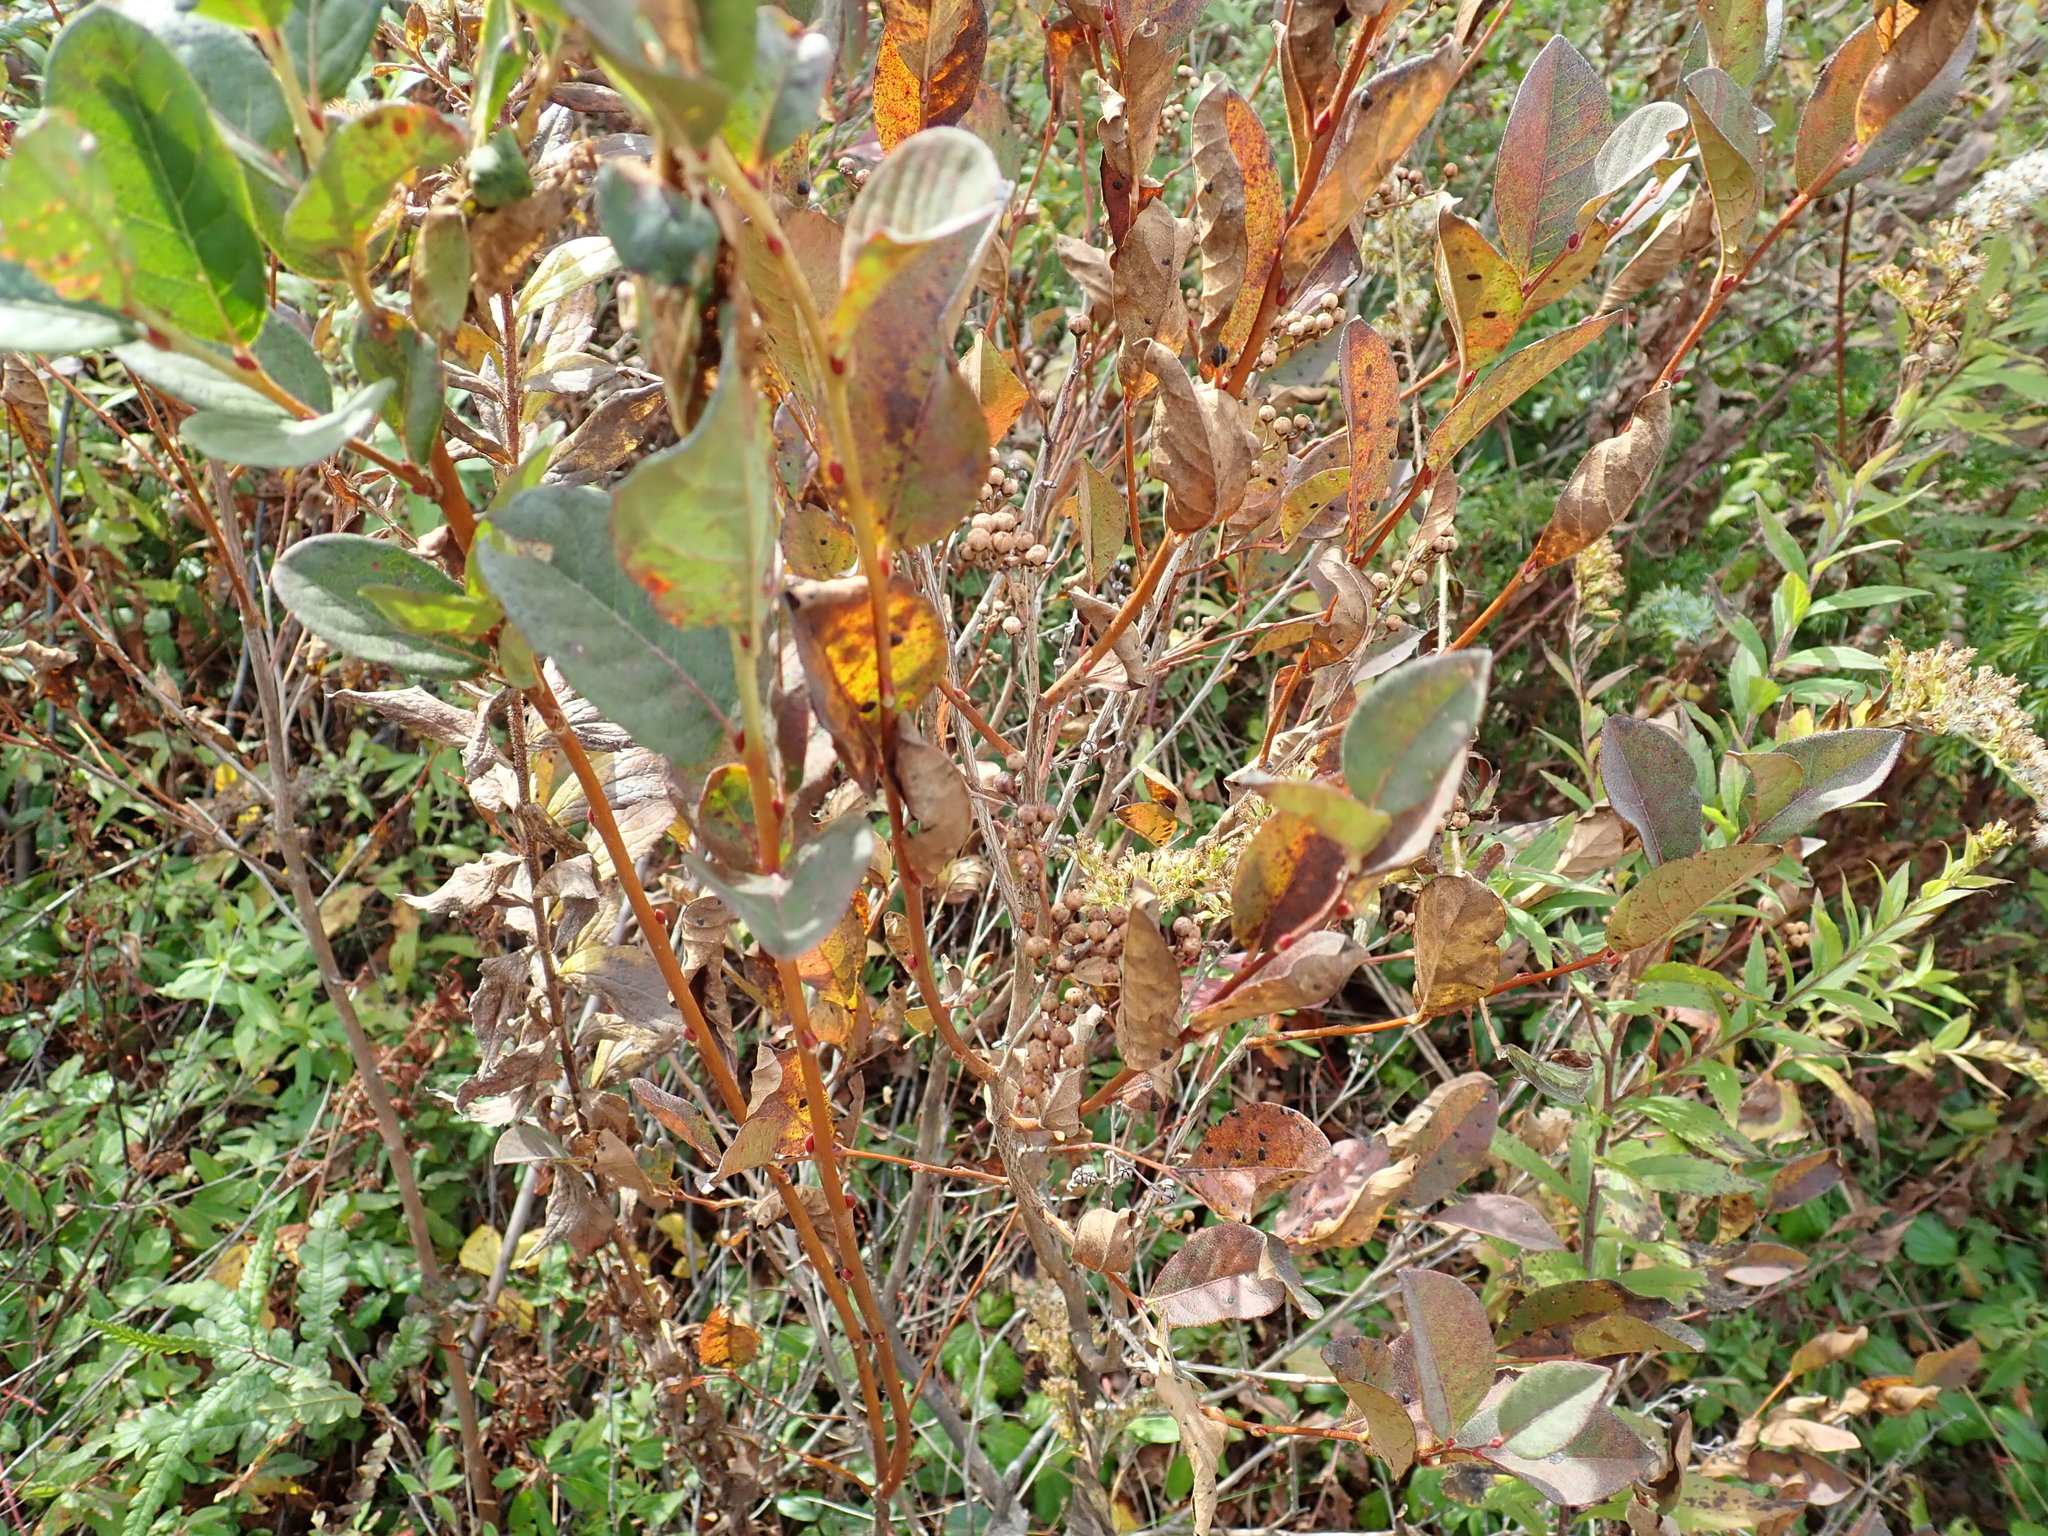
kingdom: Plantae
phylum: Tracheophyta
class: Magnoliopsida
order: Ericales
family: Ericaceae
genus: Lyonia
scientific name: Lyonia ligustrina
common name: Maleberry
